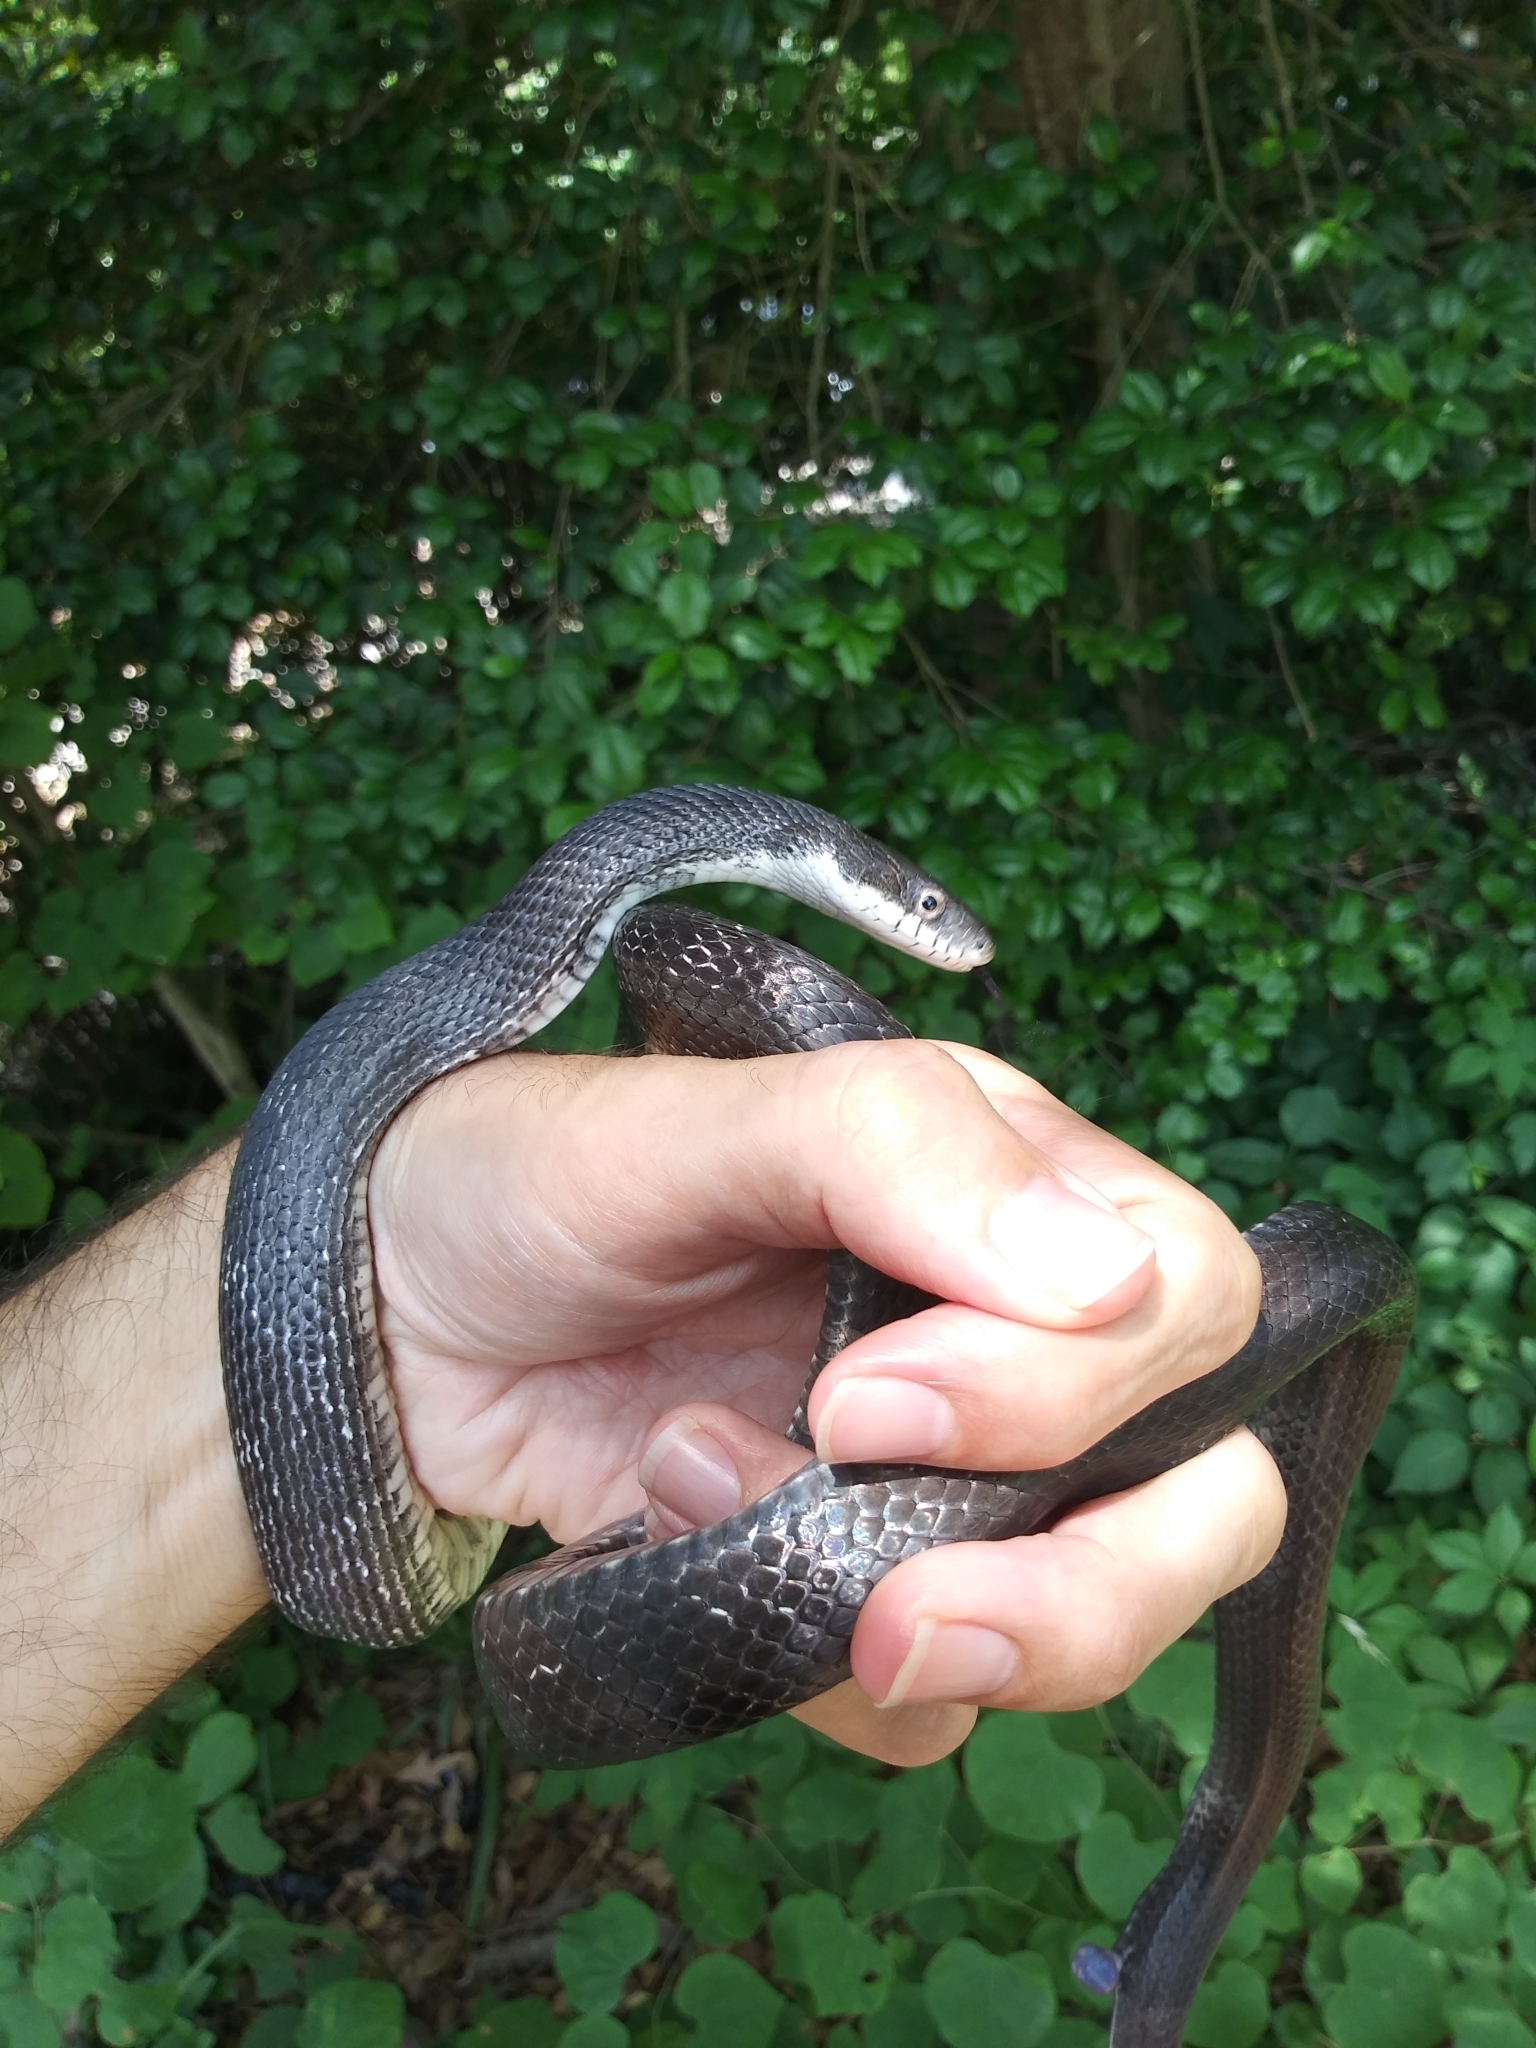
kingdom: Animalia
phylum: Chordata
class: Squamata
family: Colubridae
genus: Pantherophis
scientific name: Pantherophis alleghaniensis
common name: Eastern rat snake
